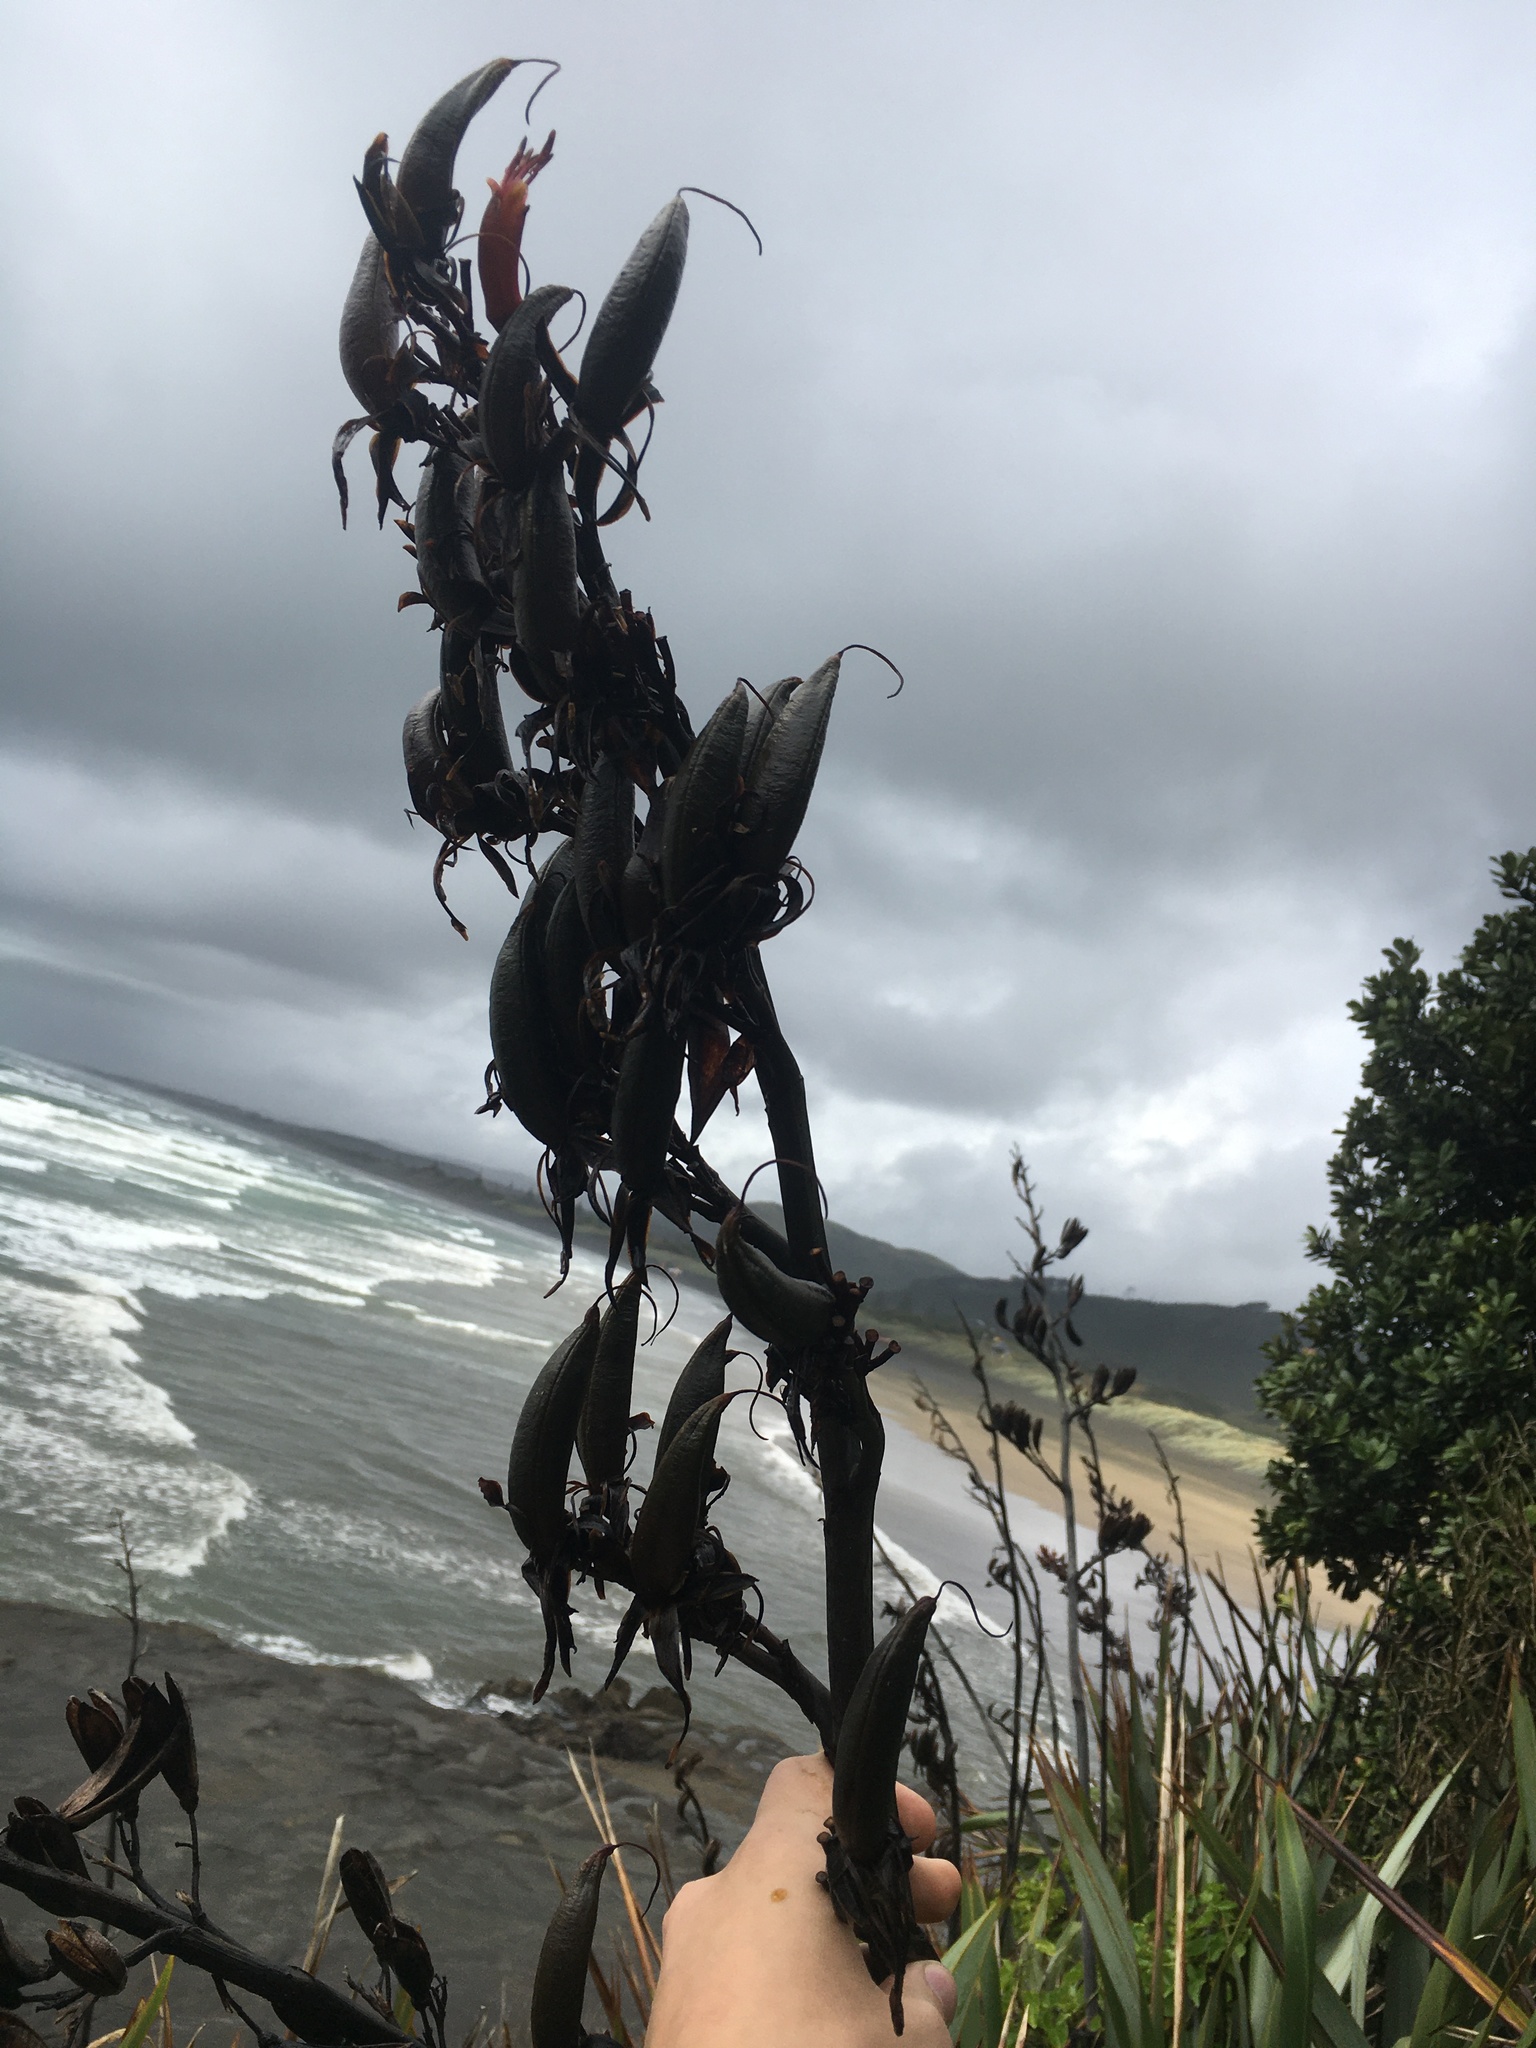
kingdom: Plantae
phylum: Tracheophyta
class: Liliopsida
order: Asparagales
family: Asphodelaceae
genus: Phormium
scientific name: Phormium tenax
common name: New zealand flax
